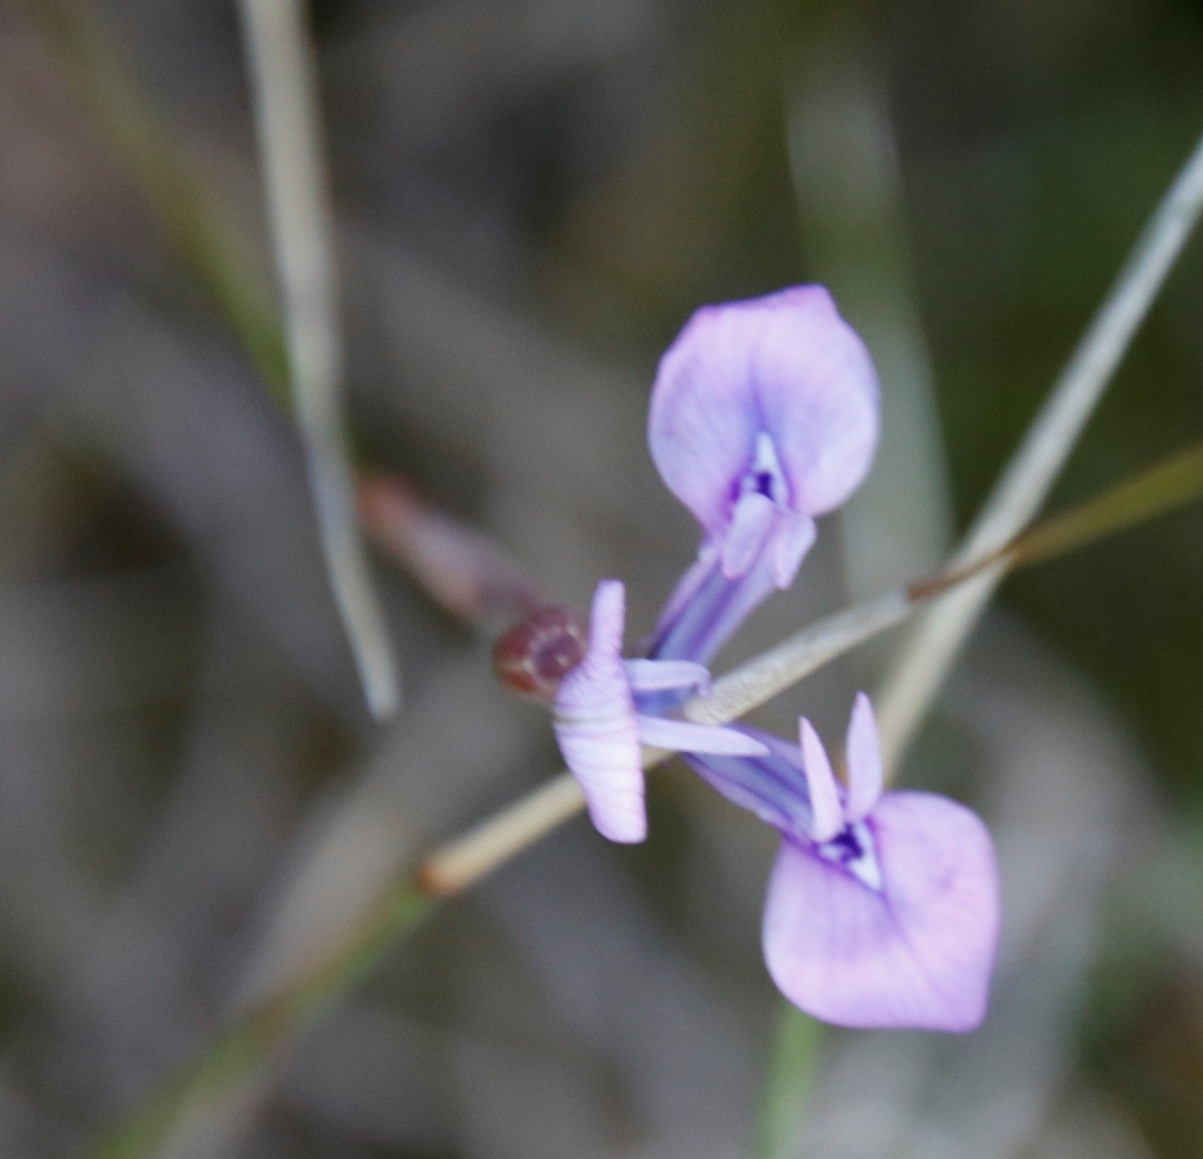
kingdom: Plantae
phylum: Tracheophyta
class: Liliopsida
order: Asparagales
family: Iridaceae
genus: Moraea
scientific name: Moraea tripetala
